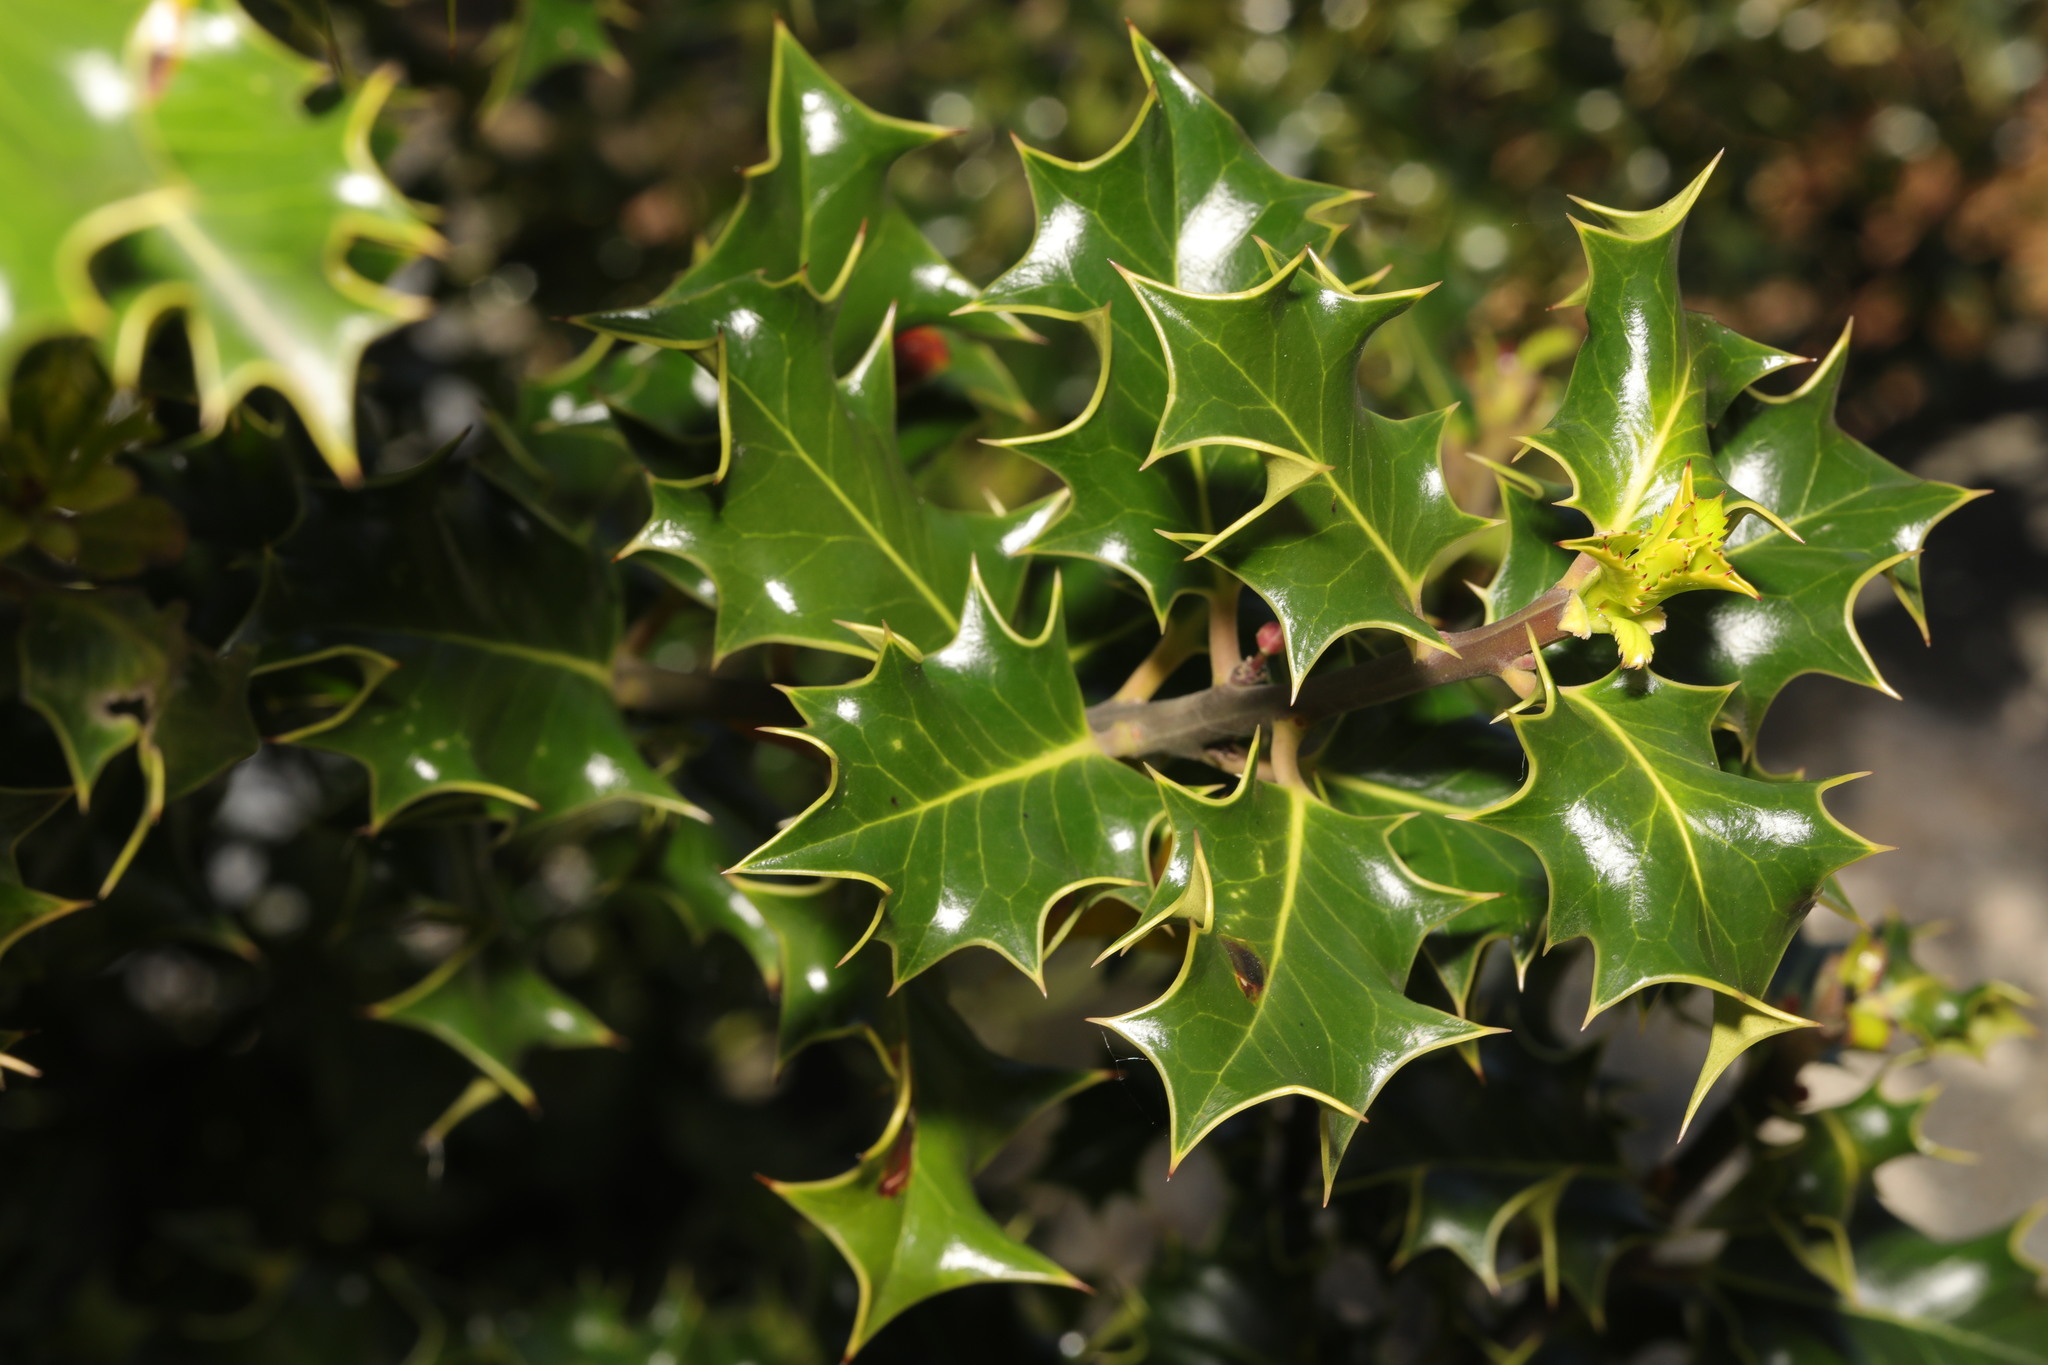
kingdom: Plantae
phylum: Tracheophyta
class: Magnoliopsida
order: Aquifoliales
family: Aquifoliaceae
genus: Ilex
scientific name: Ilex aquifolium
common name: English holly
